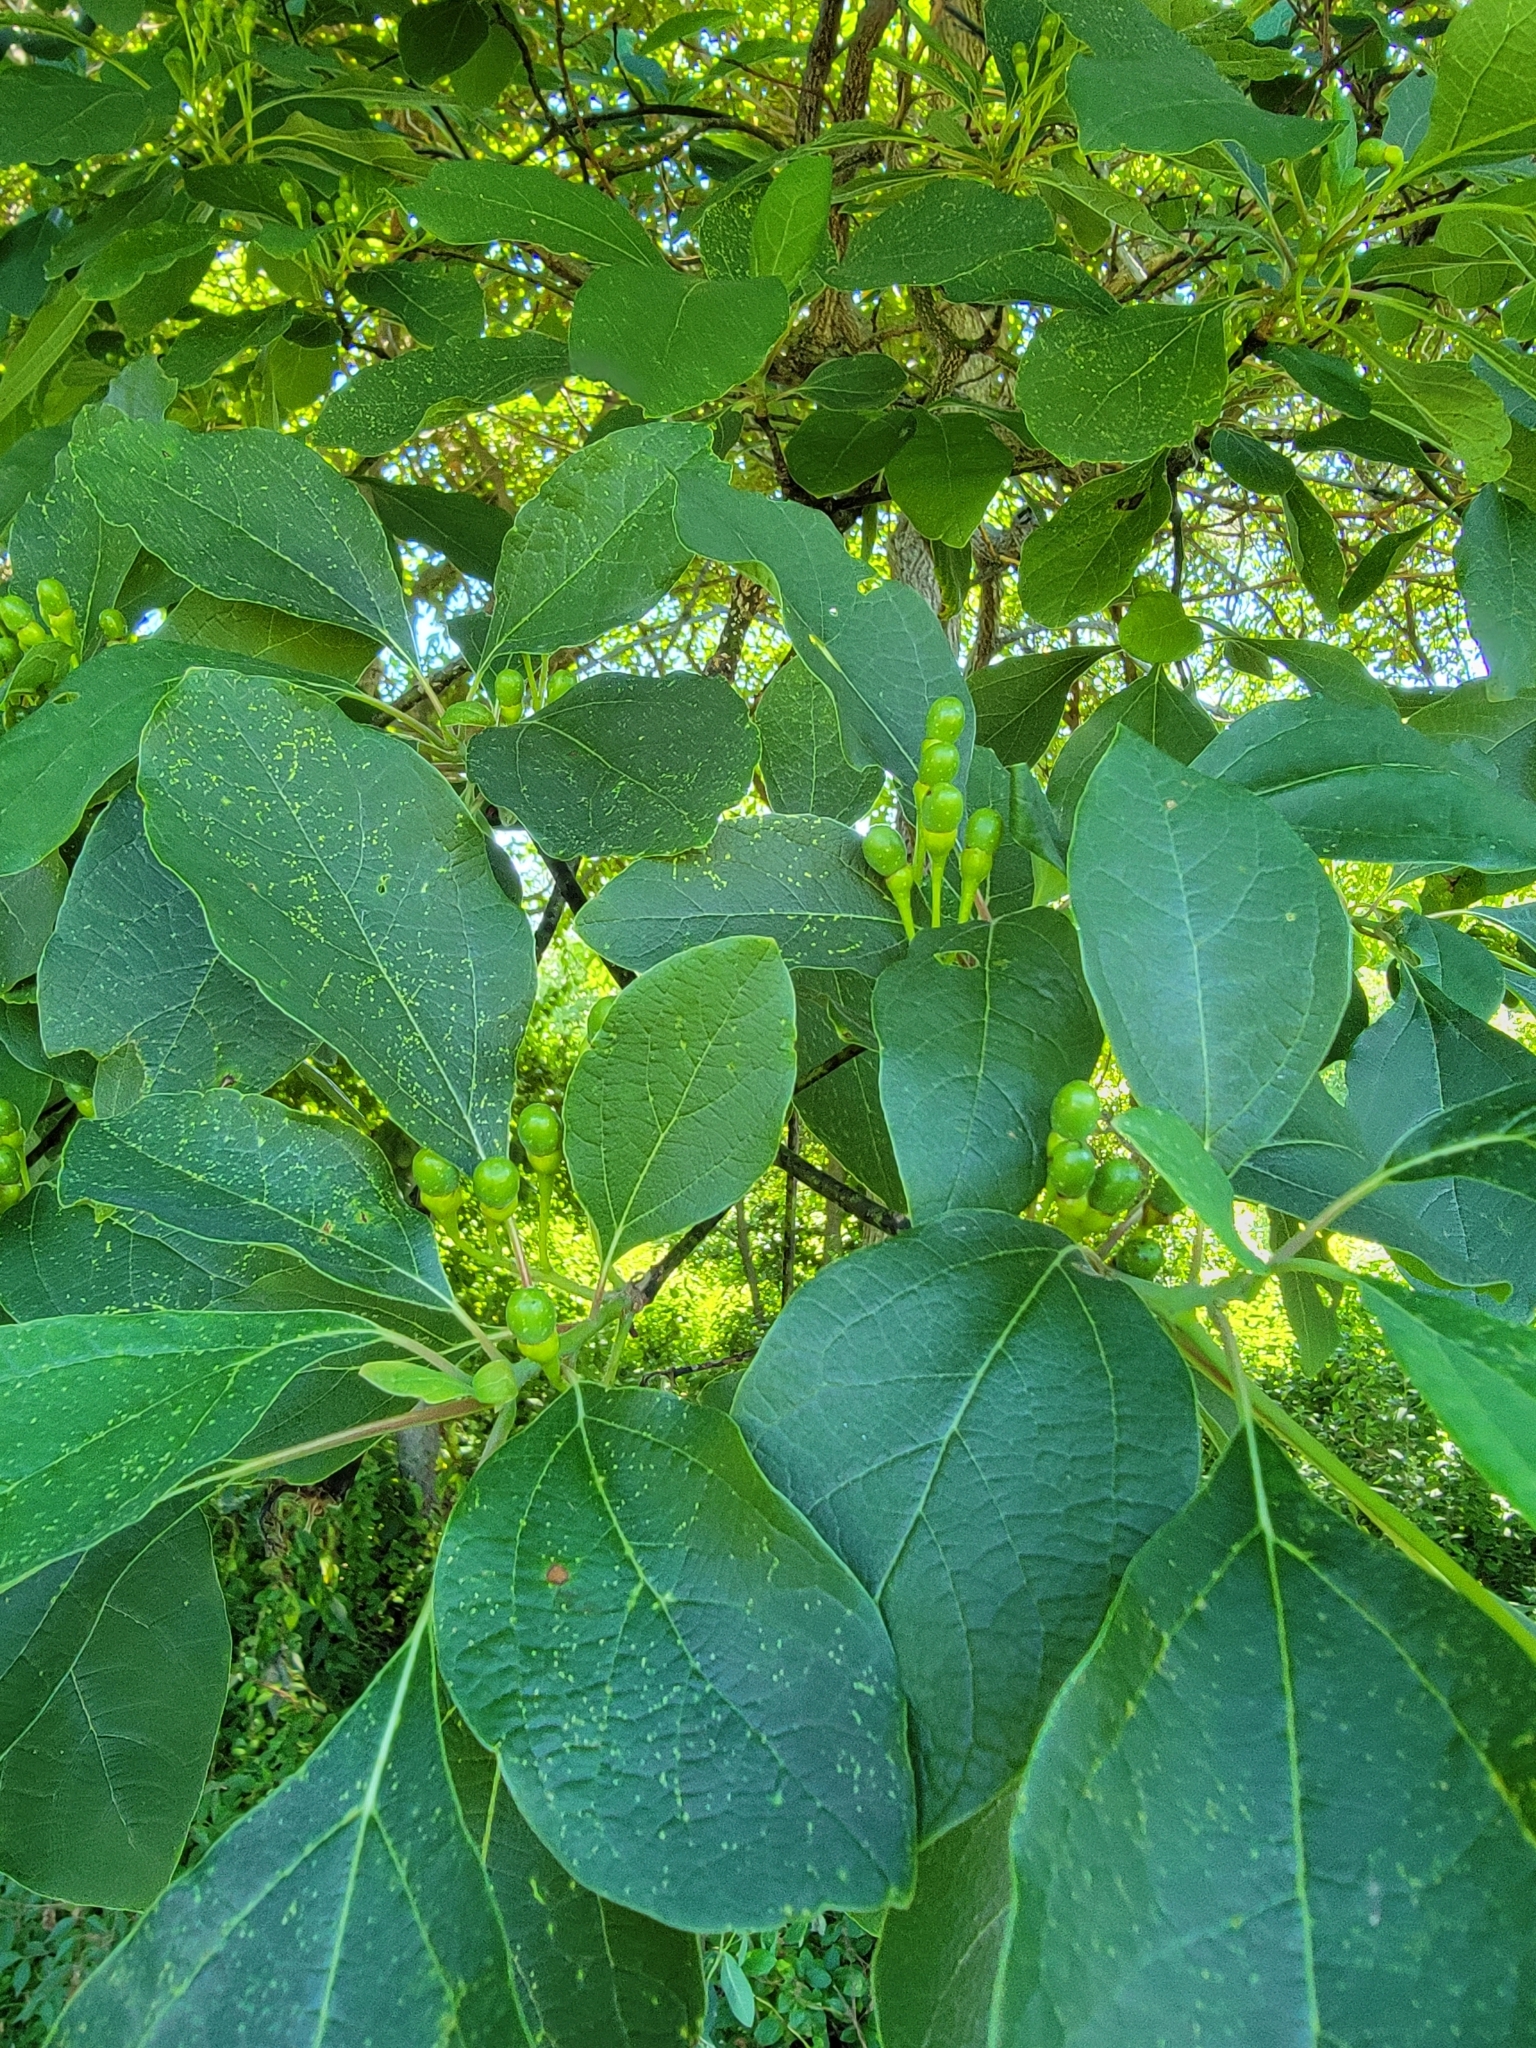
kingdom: Plantae
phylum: Tracheophyta
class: Magnoliopsida
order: Laurales
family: Lauraceae
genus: Sassafras
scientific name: Sassafras albidum
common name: Sassafras
